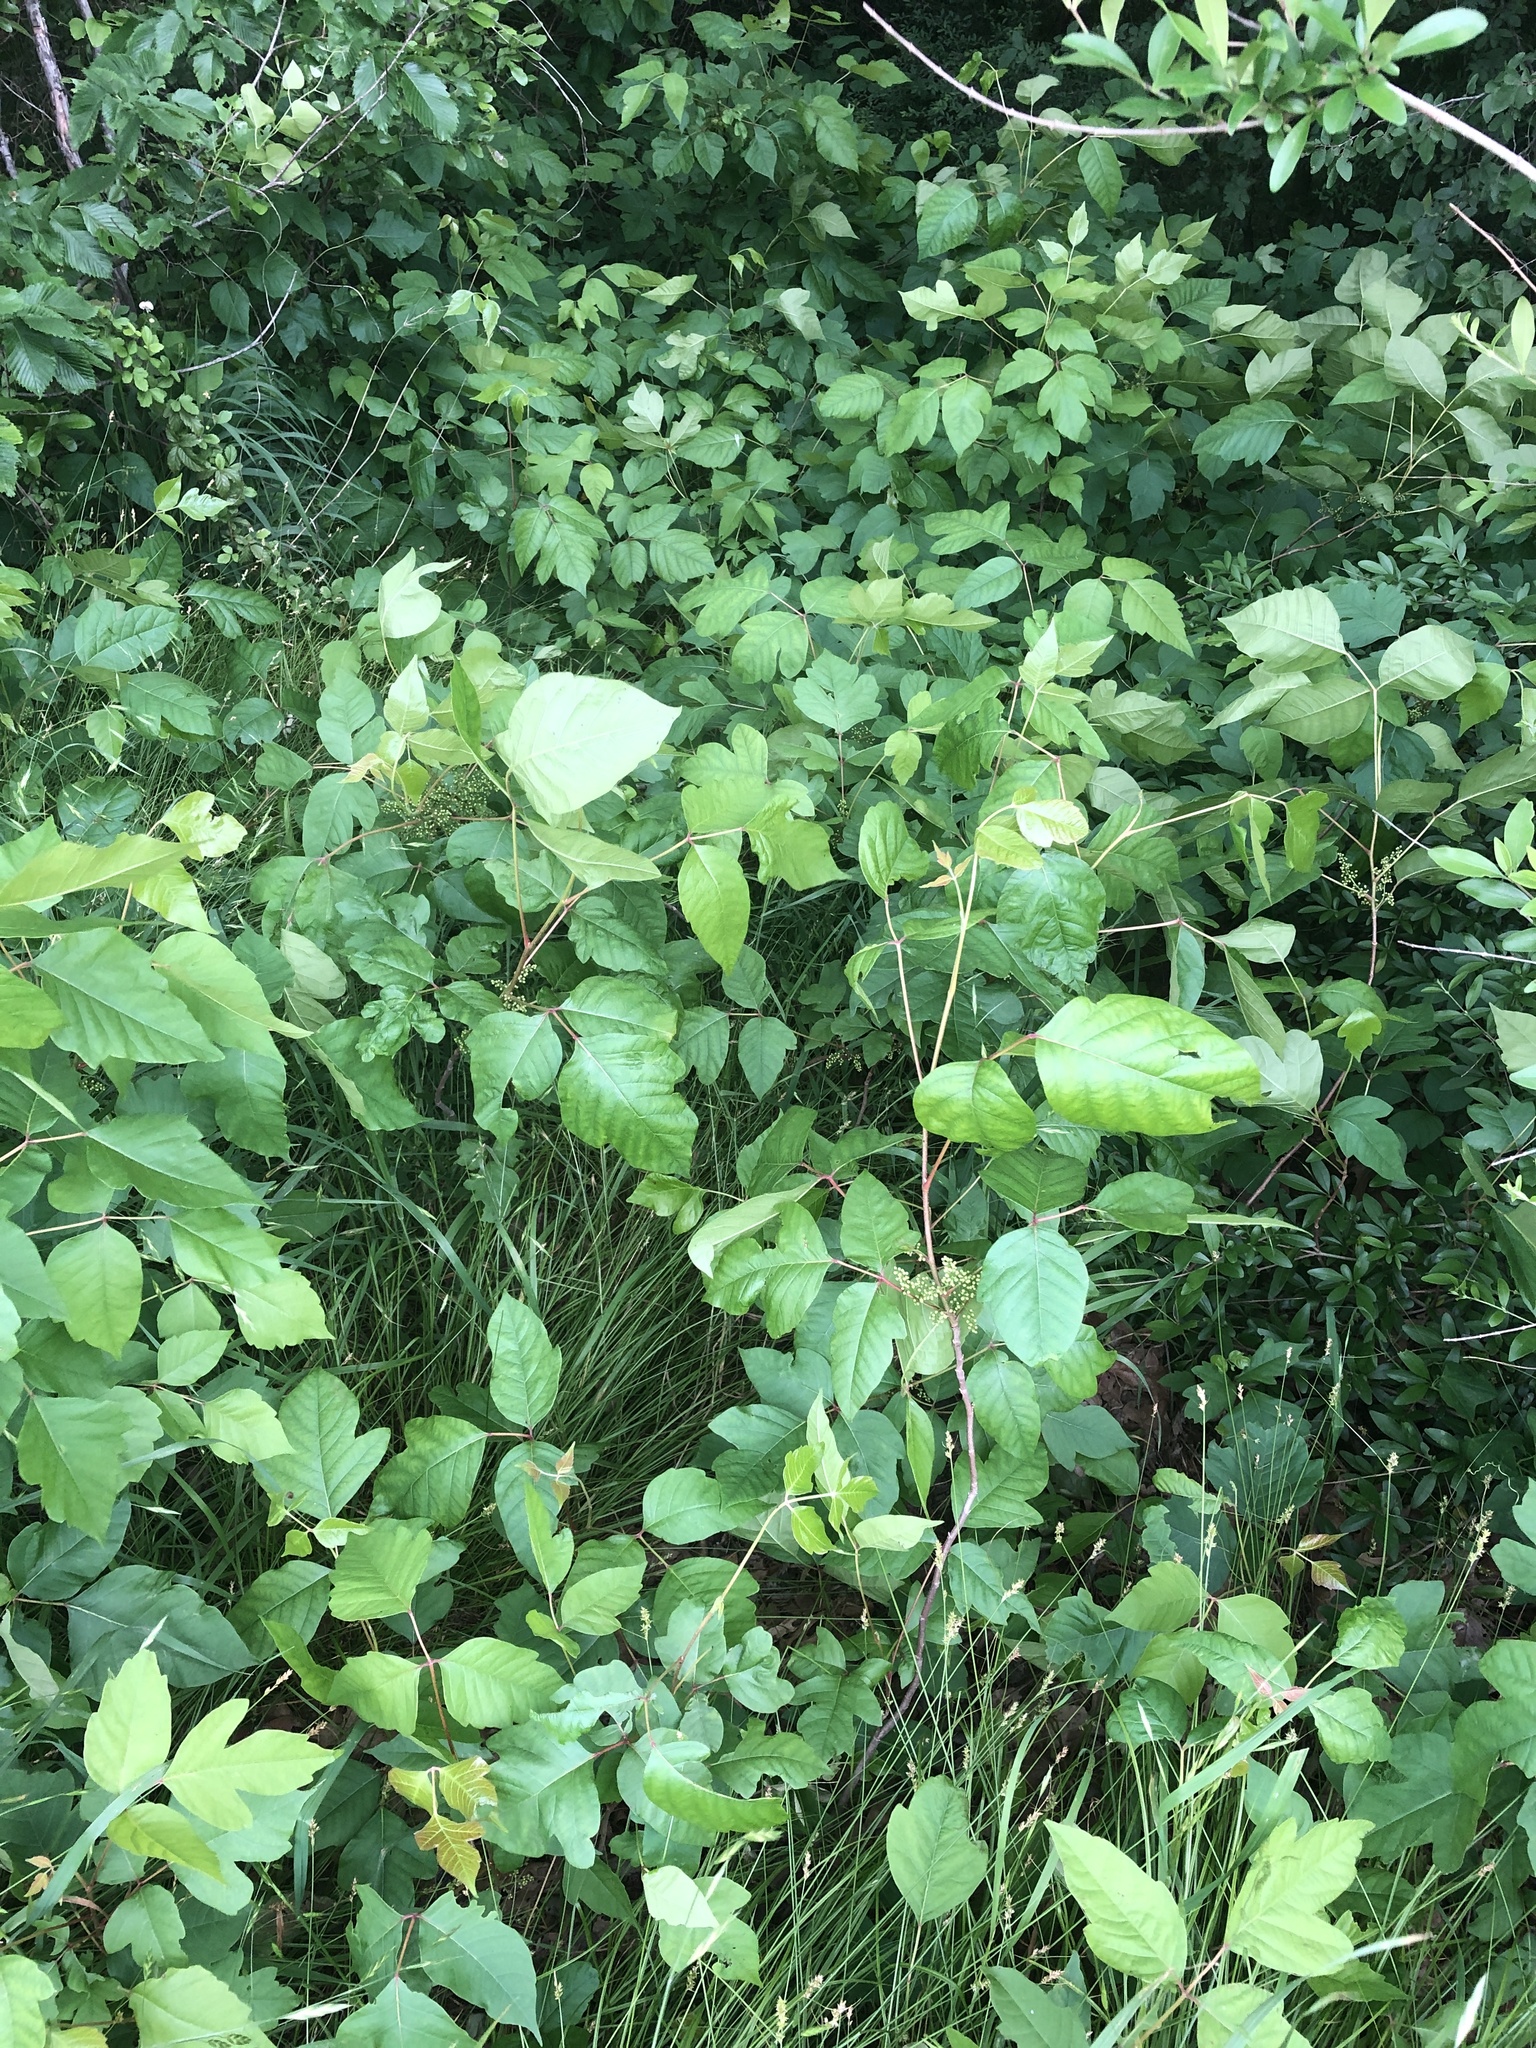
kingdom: Plantae
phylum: Tracheophyta
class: Magnoliopsida
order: Sapindales
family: Anacardiaceae
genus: Toxicodendron
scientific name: Toxicodendron radicans
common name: Poison ivy
